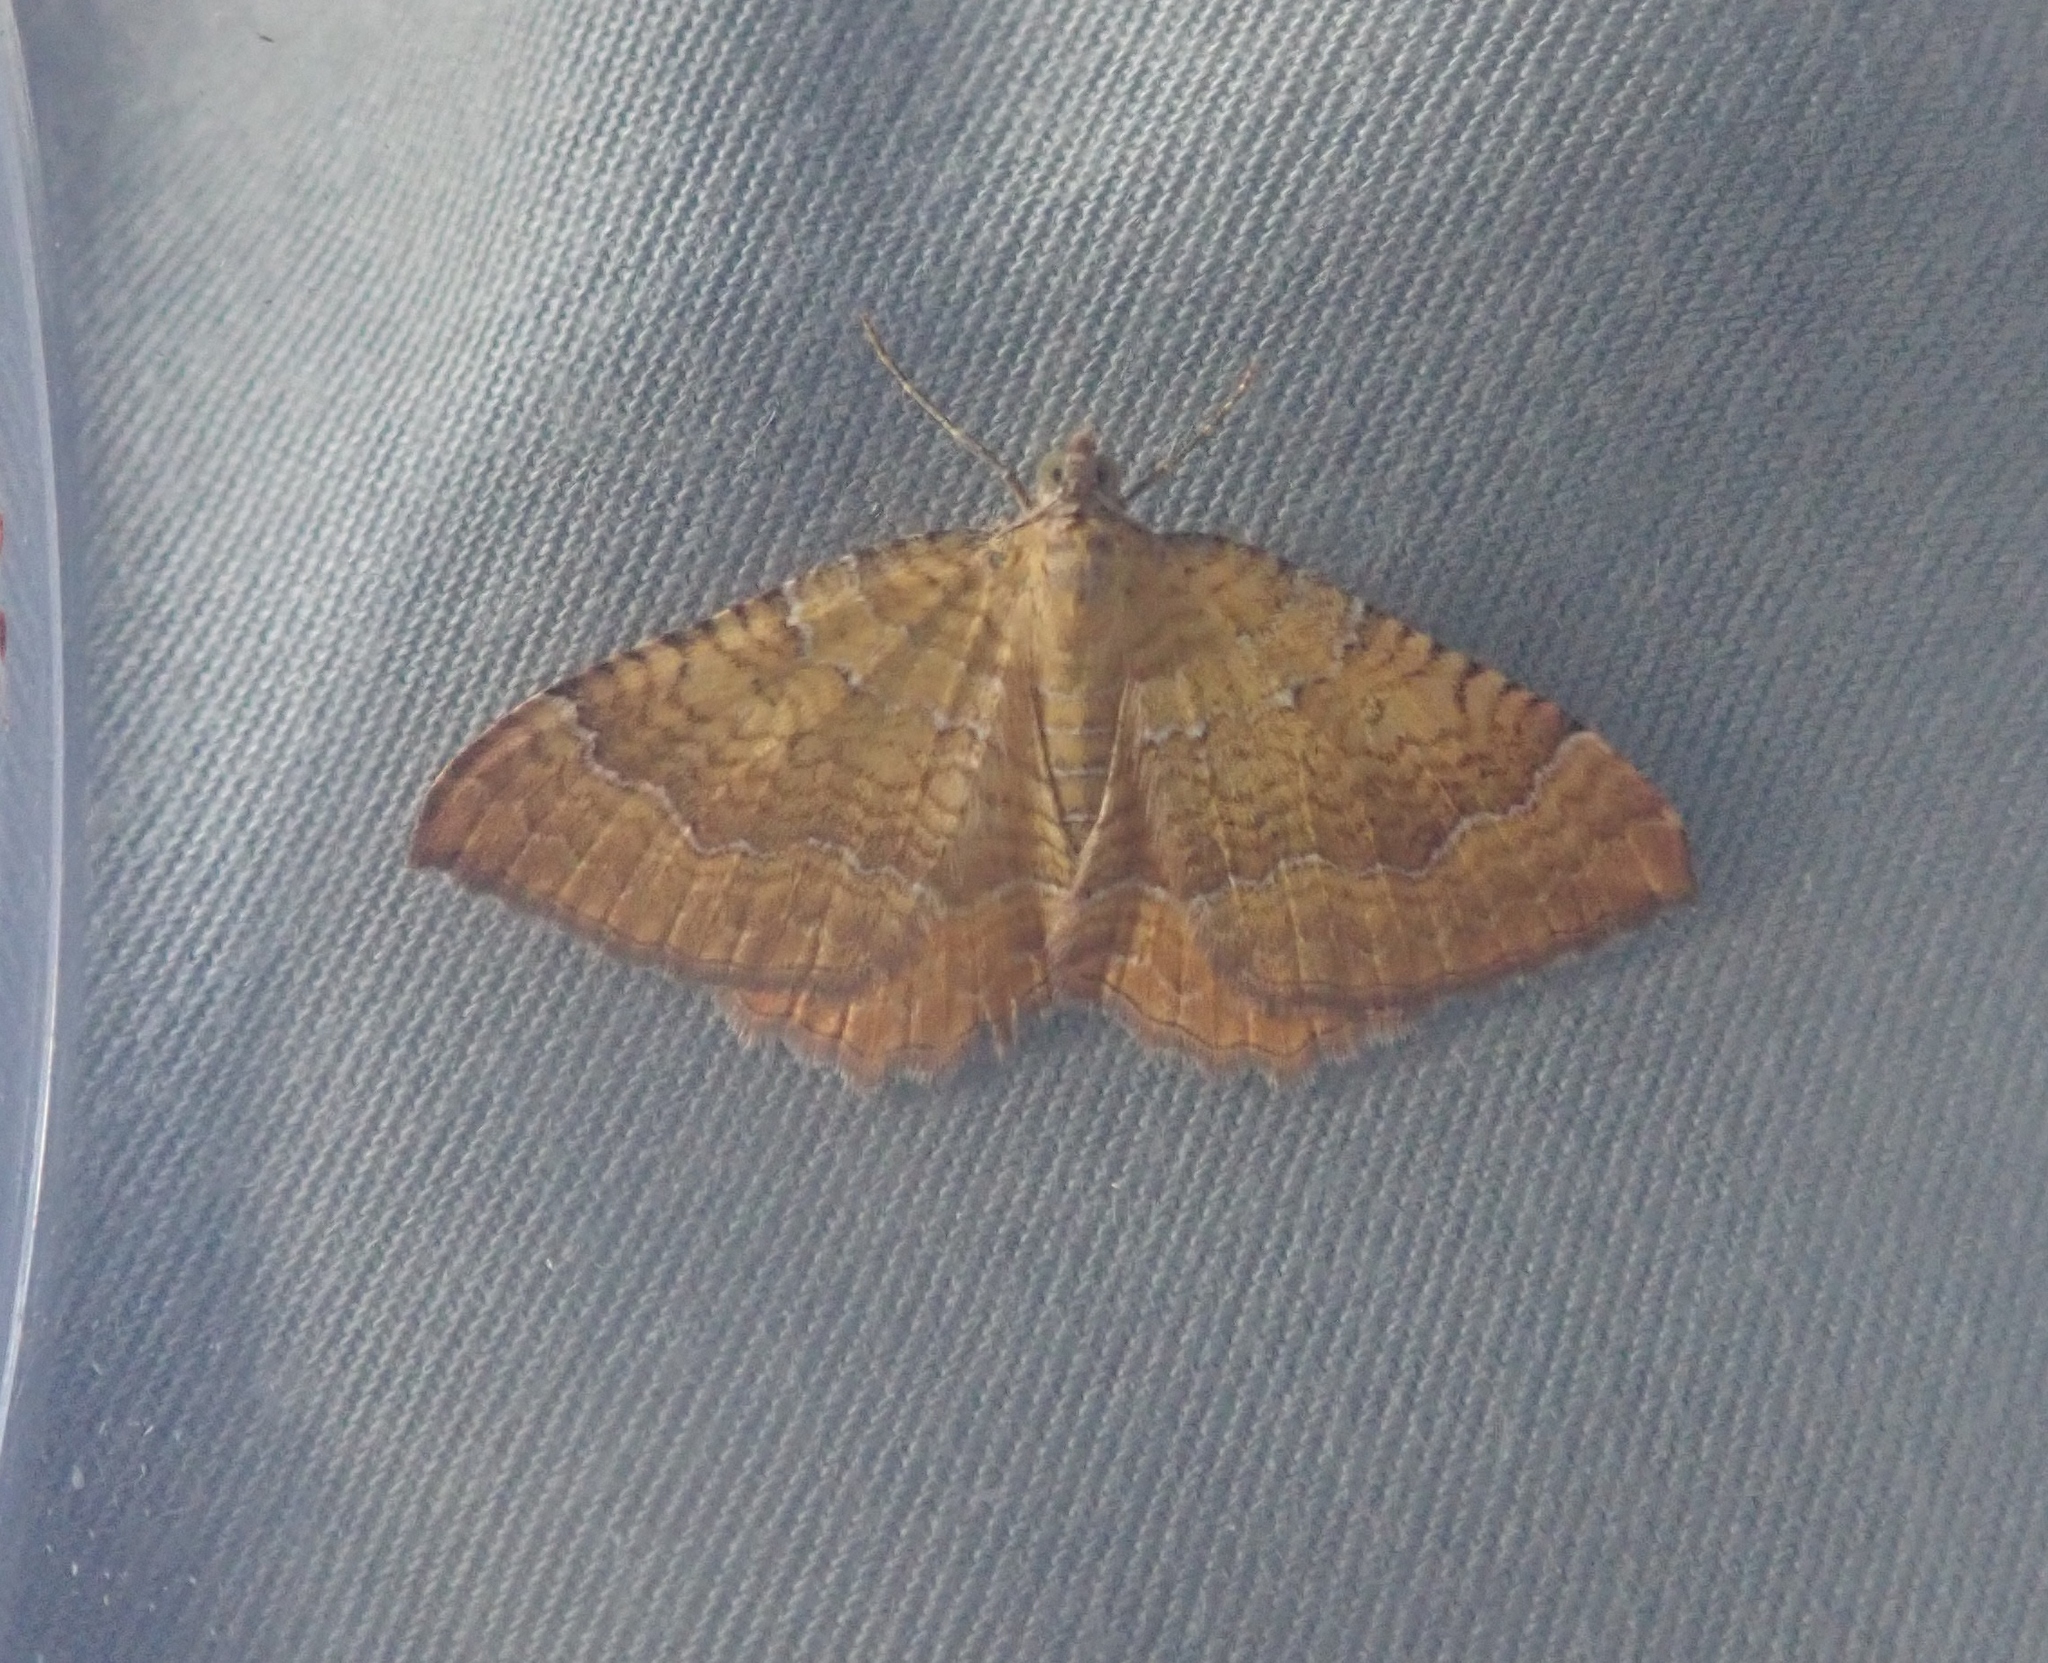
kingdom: Animalia
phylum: Arthropoda
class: Insecta
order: Lepidoptera
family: Geometridae
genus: Camptogramma
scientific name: Camptogramma bilineata
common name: Yellow shell
